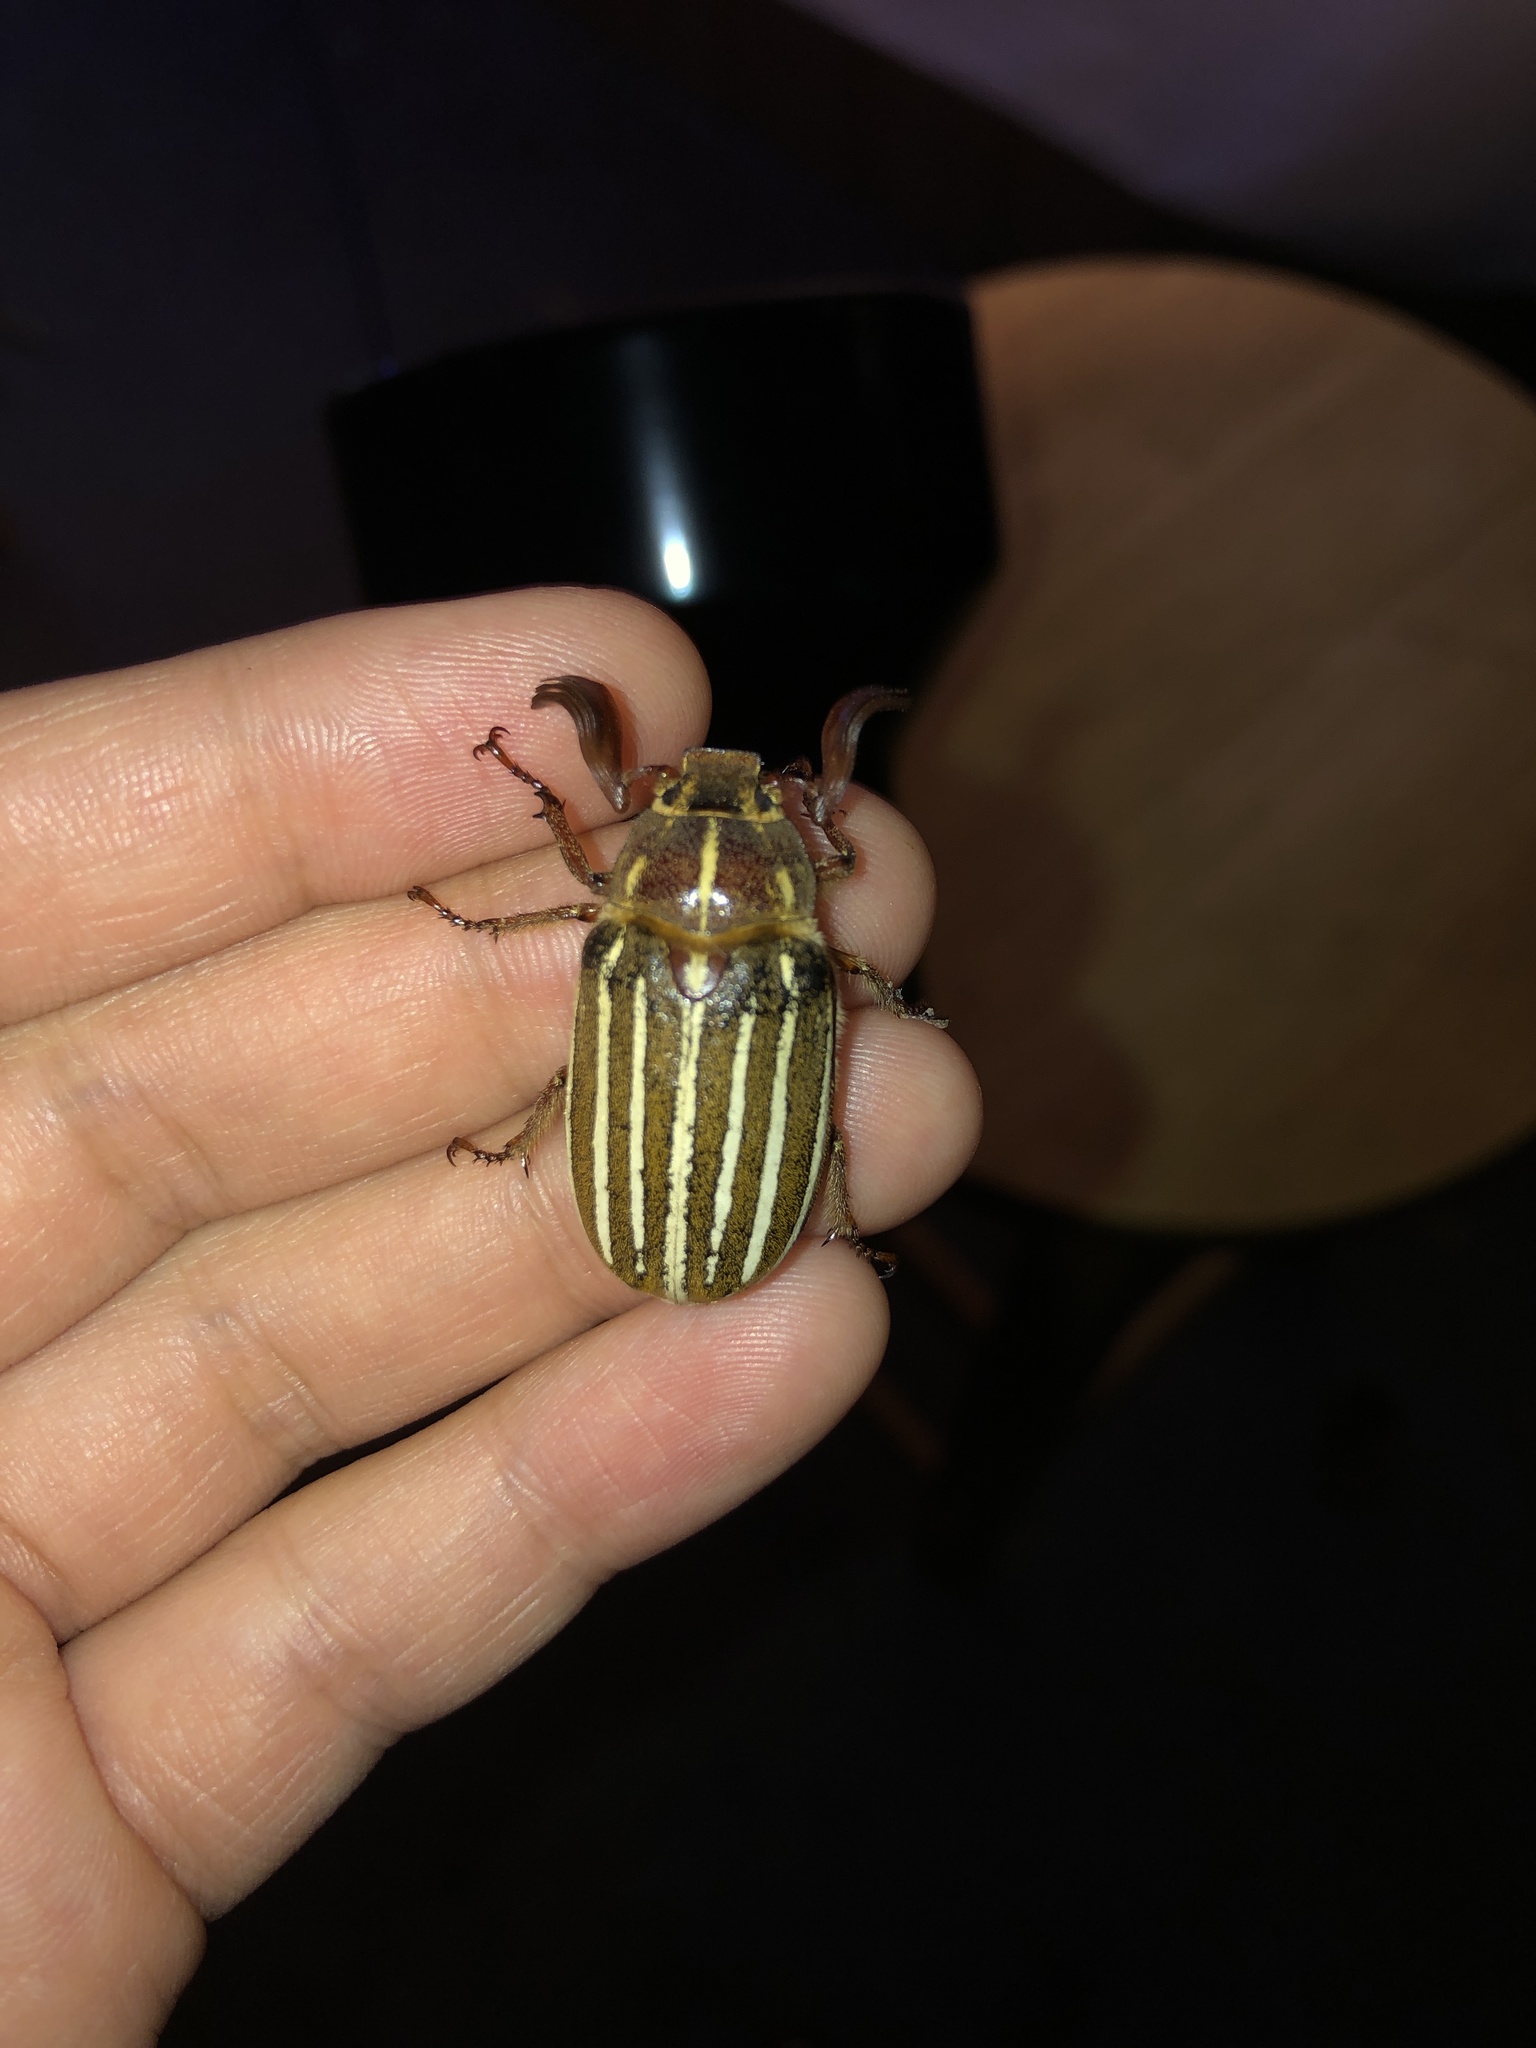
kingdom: Animalia
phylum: Arthropoda
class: Insecta
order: Coleoptera
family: Scarabaeidae
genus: Polyphylla
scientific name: Polyphylla crinita
